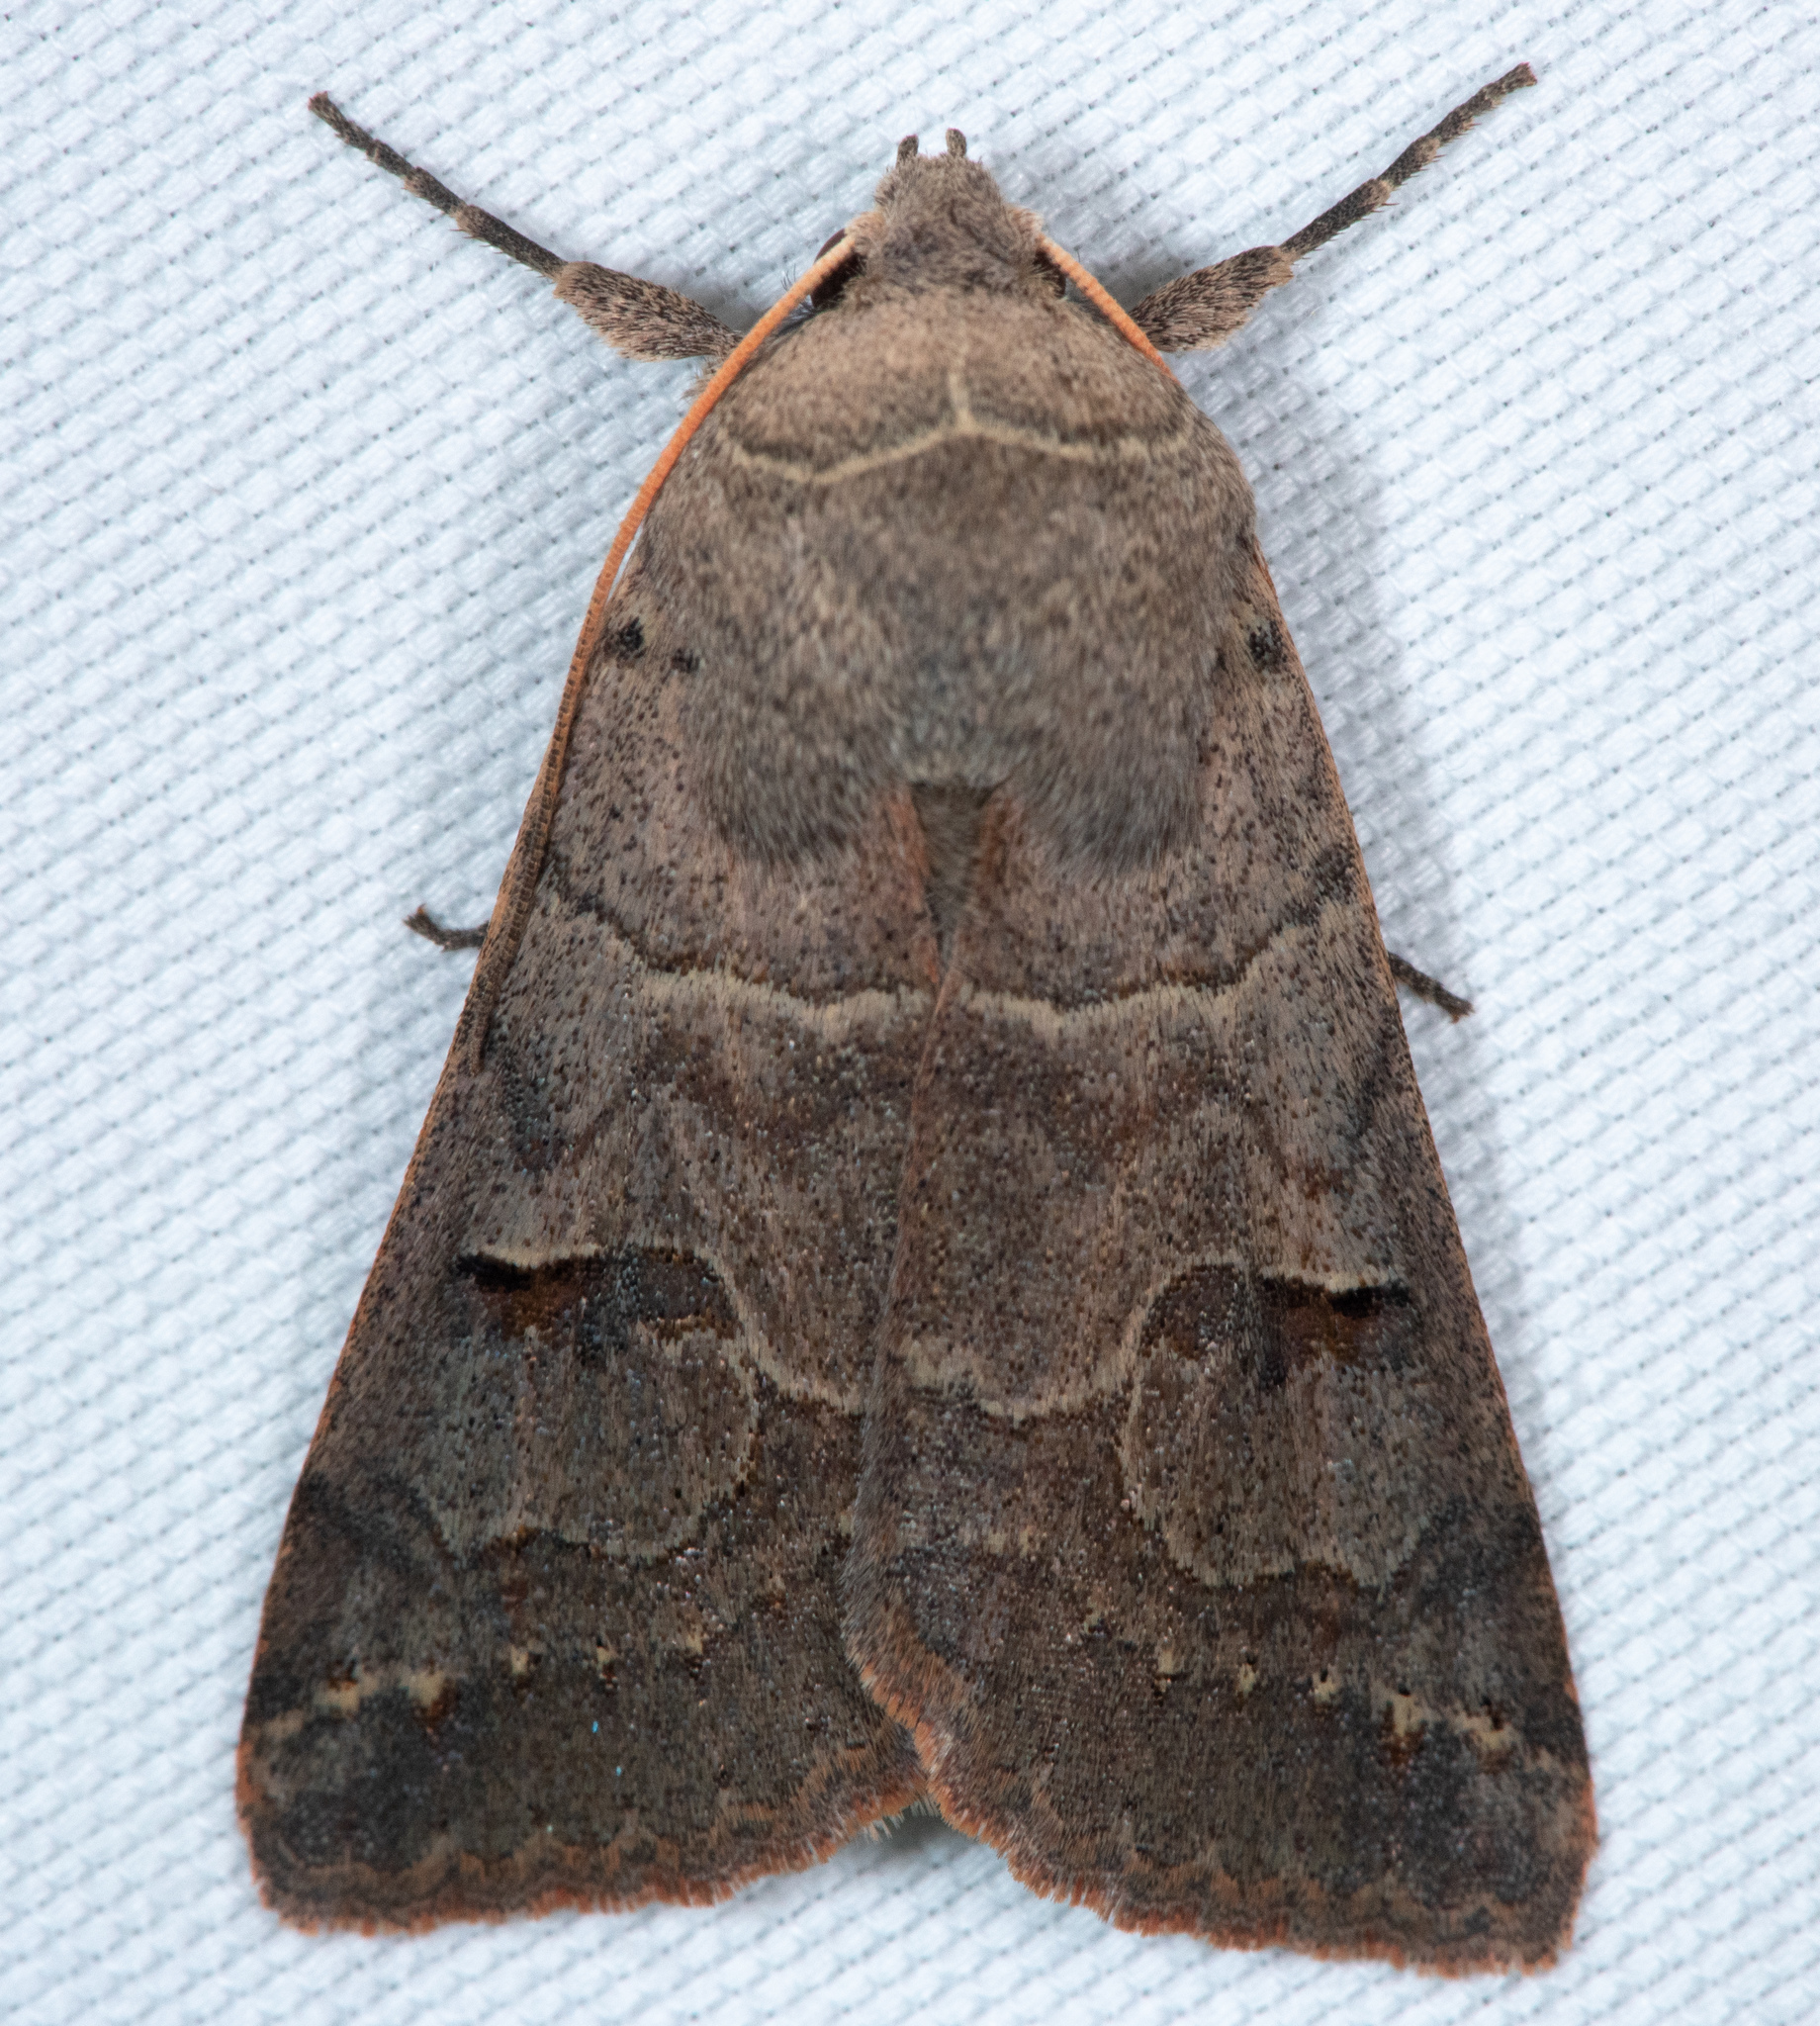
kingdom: Animalia
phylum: Arthropoda
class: Insecta
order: Lepidoptera
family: Erebidae
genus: Cissusa
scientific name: Cissusa indiscreta
